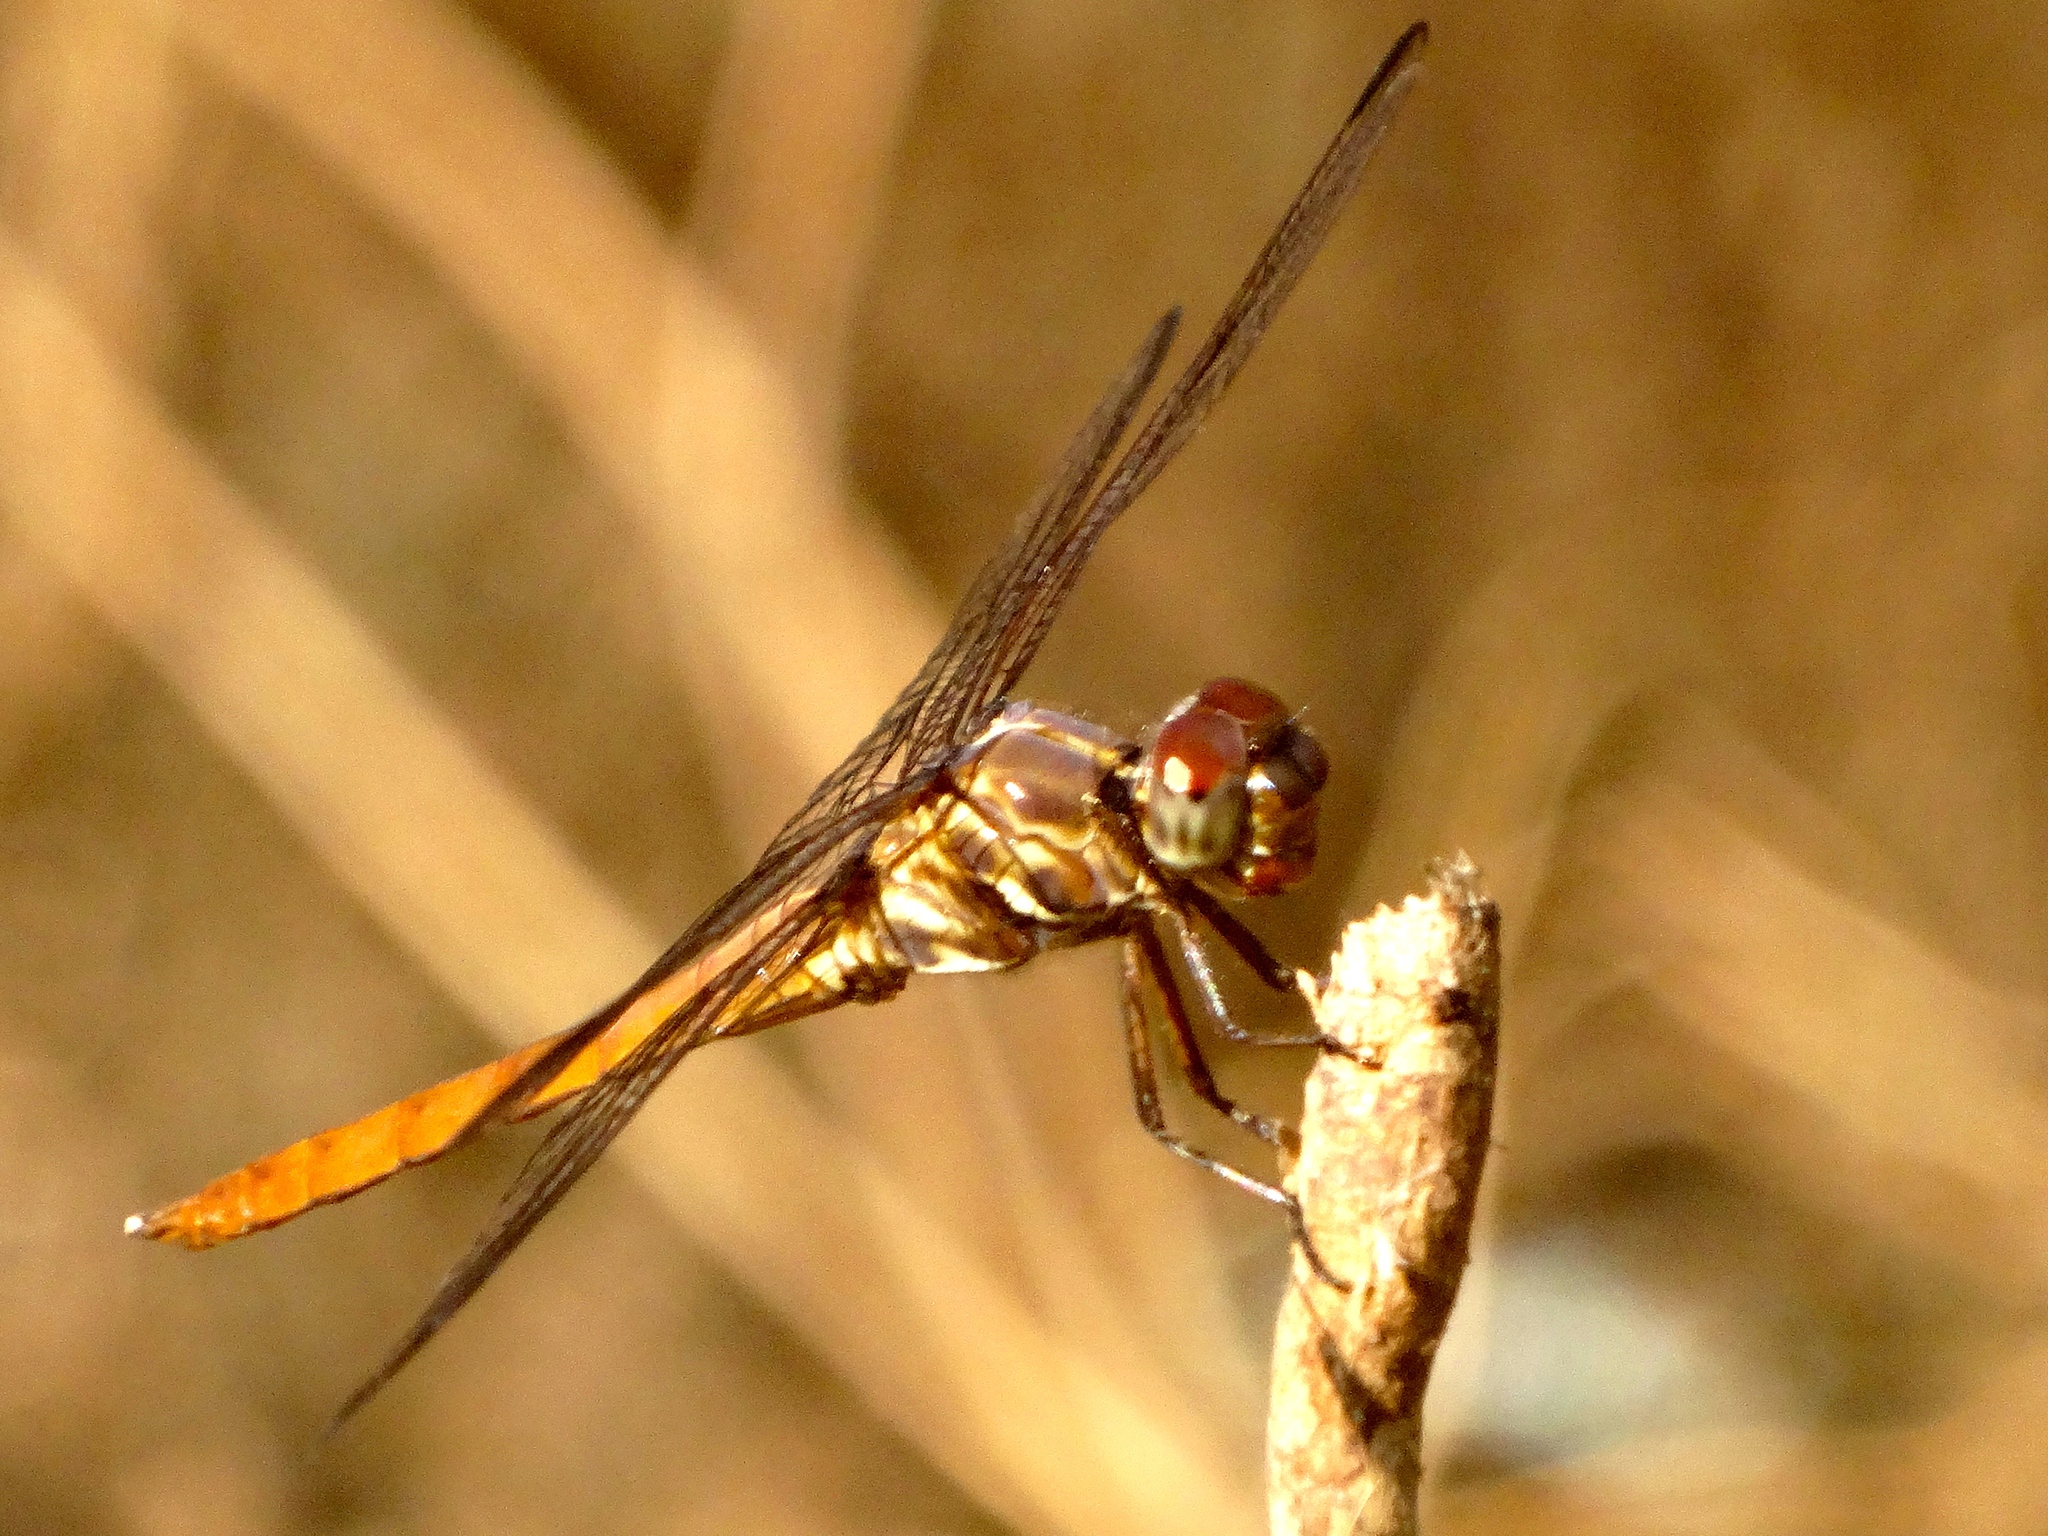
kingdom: Animalia
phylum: Arthropoda
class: Insecta
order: Odonata
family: Libellulidae
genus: Orthemis
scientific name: Orthemis ferruginea
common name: Roseate skimmer
